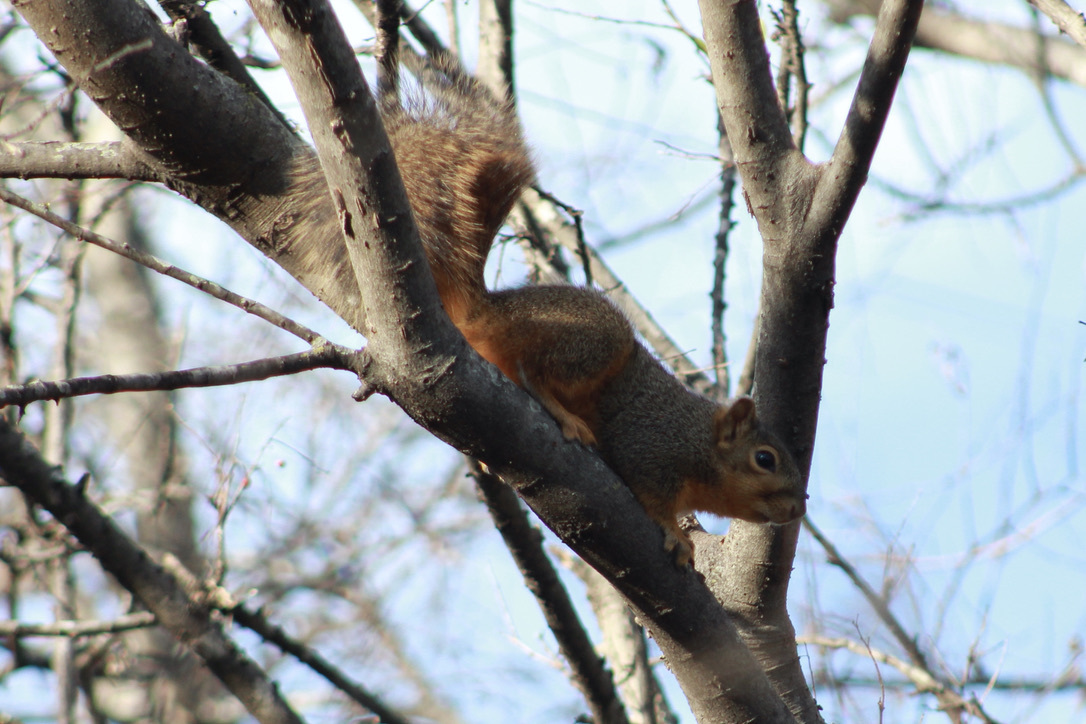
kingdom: Animalia
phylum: Chordata
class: Mammalia
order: Rodentia
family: Sciuridae
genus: Sciurus
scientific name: Sciurus niger
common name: Fox squirrel
